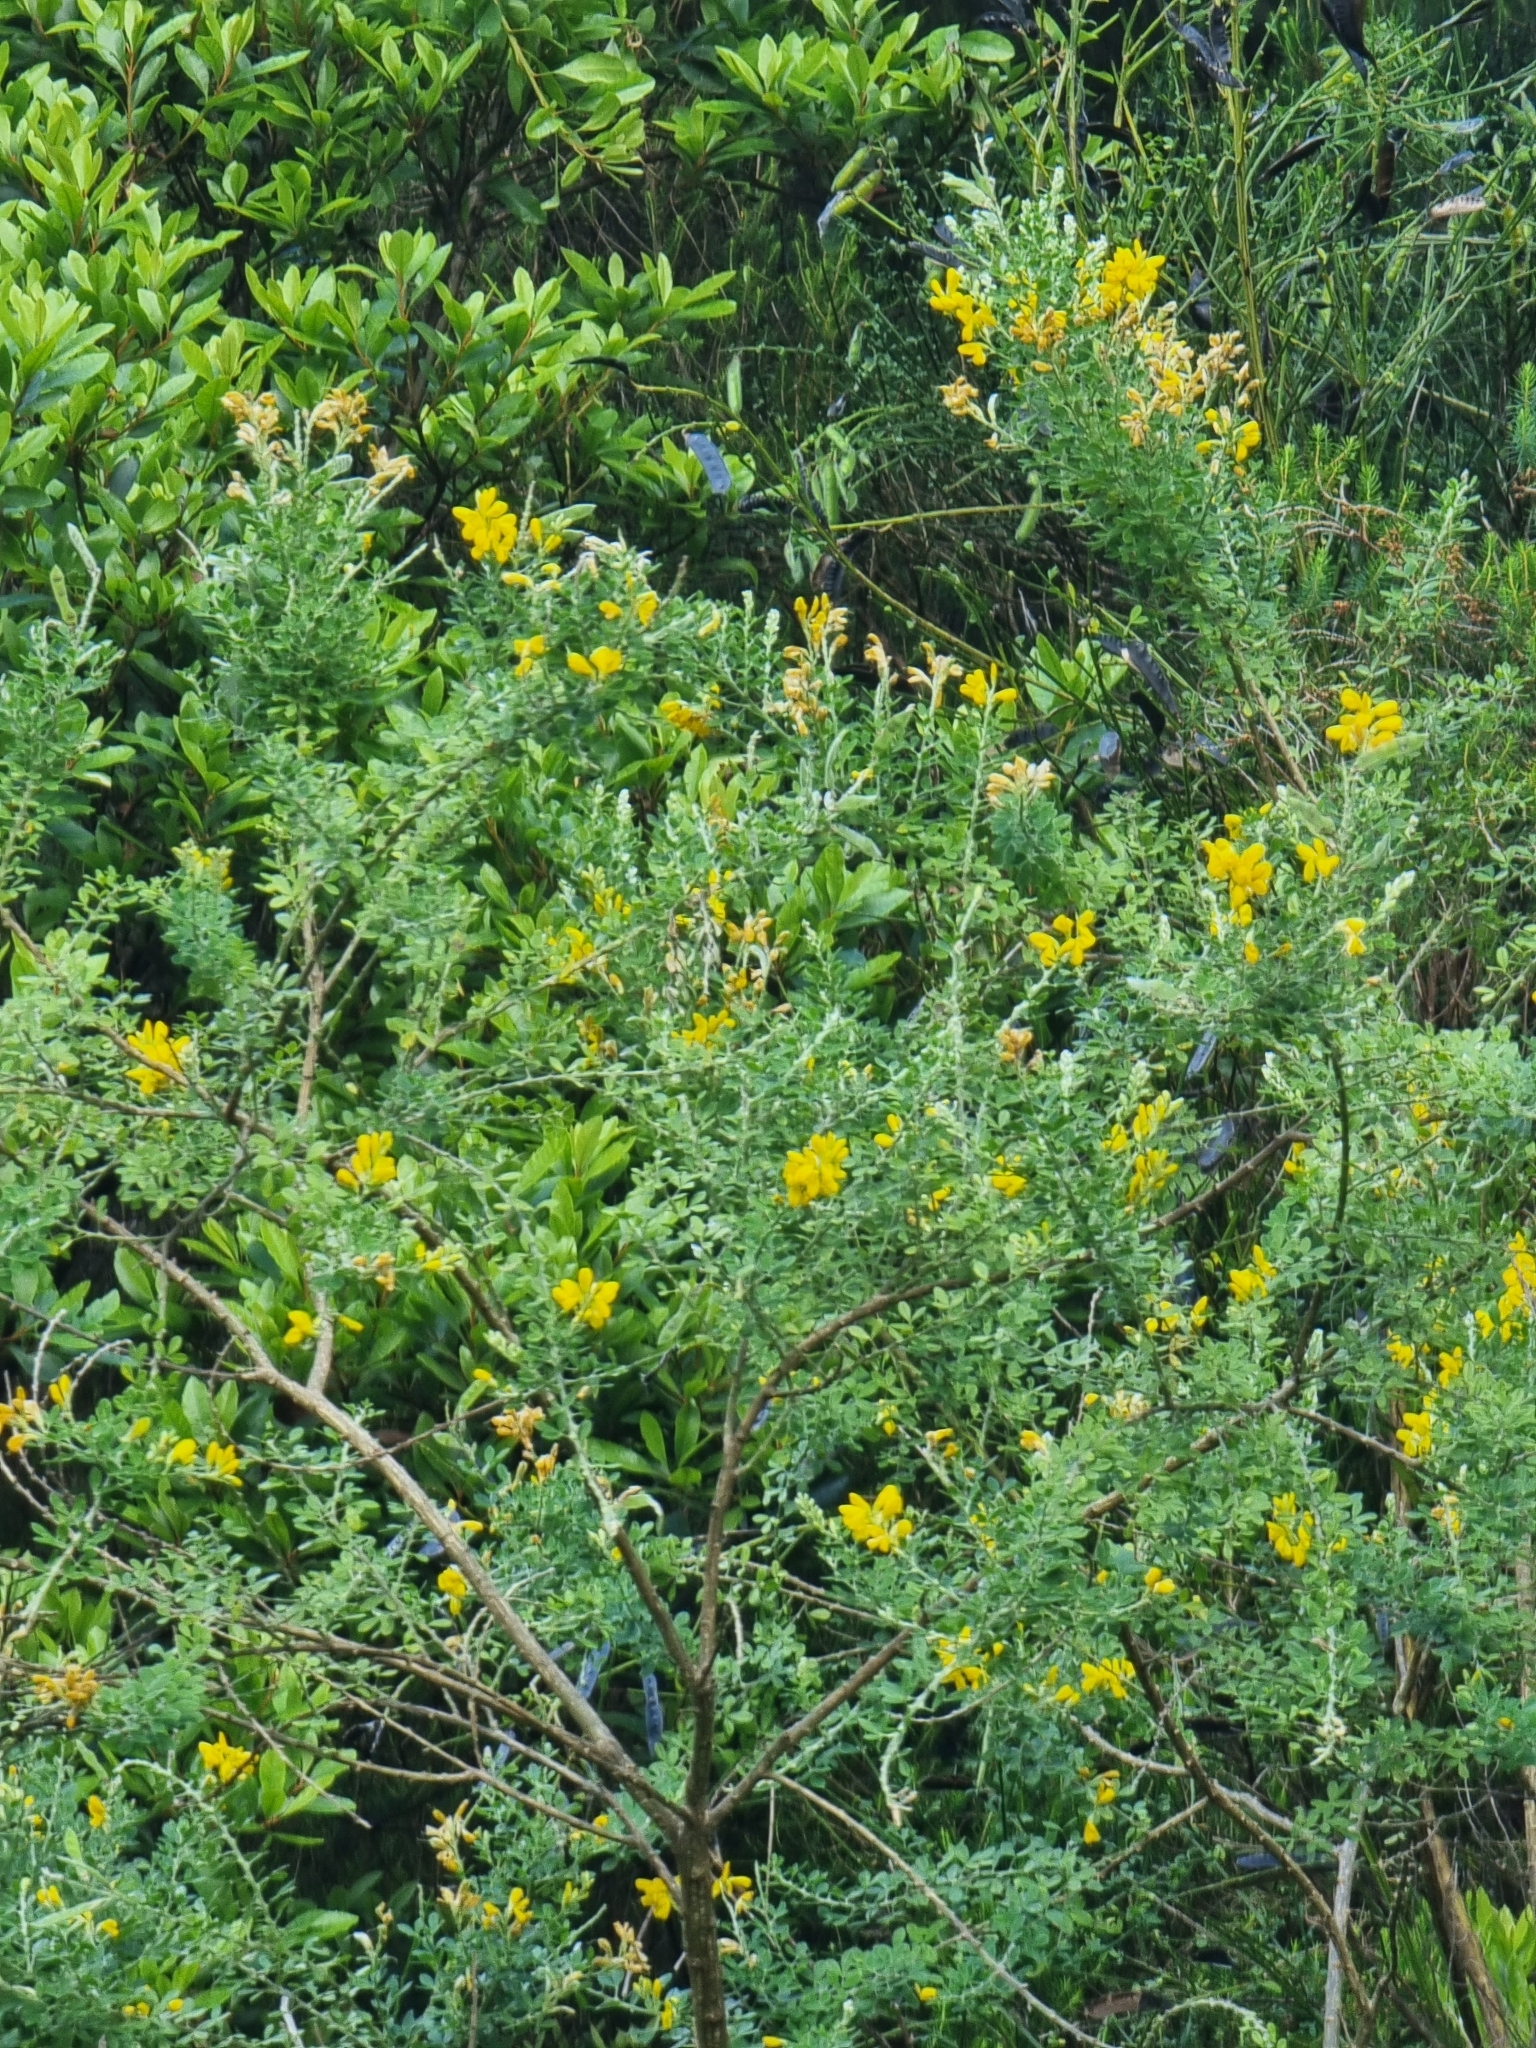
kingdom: Plantae
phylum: Tracheophyta
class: Magnoliopsida
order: Fabales
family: Fabaceae
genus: Genista
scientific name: Genista maderensis
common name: Madeira dyer's greenweed
